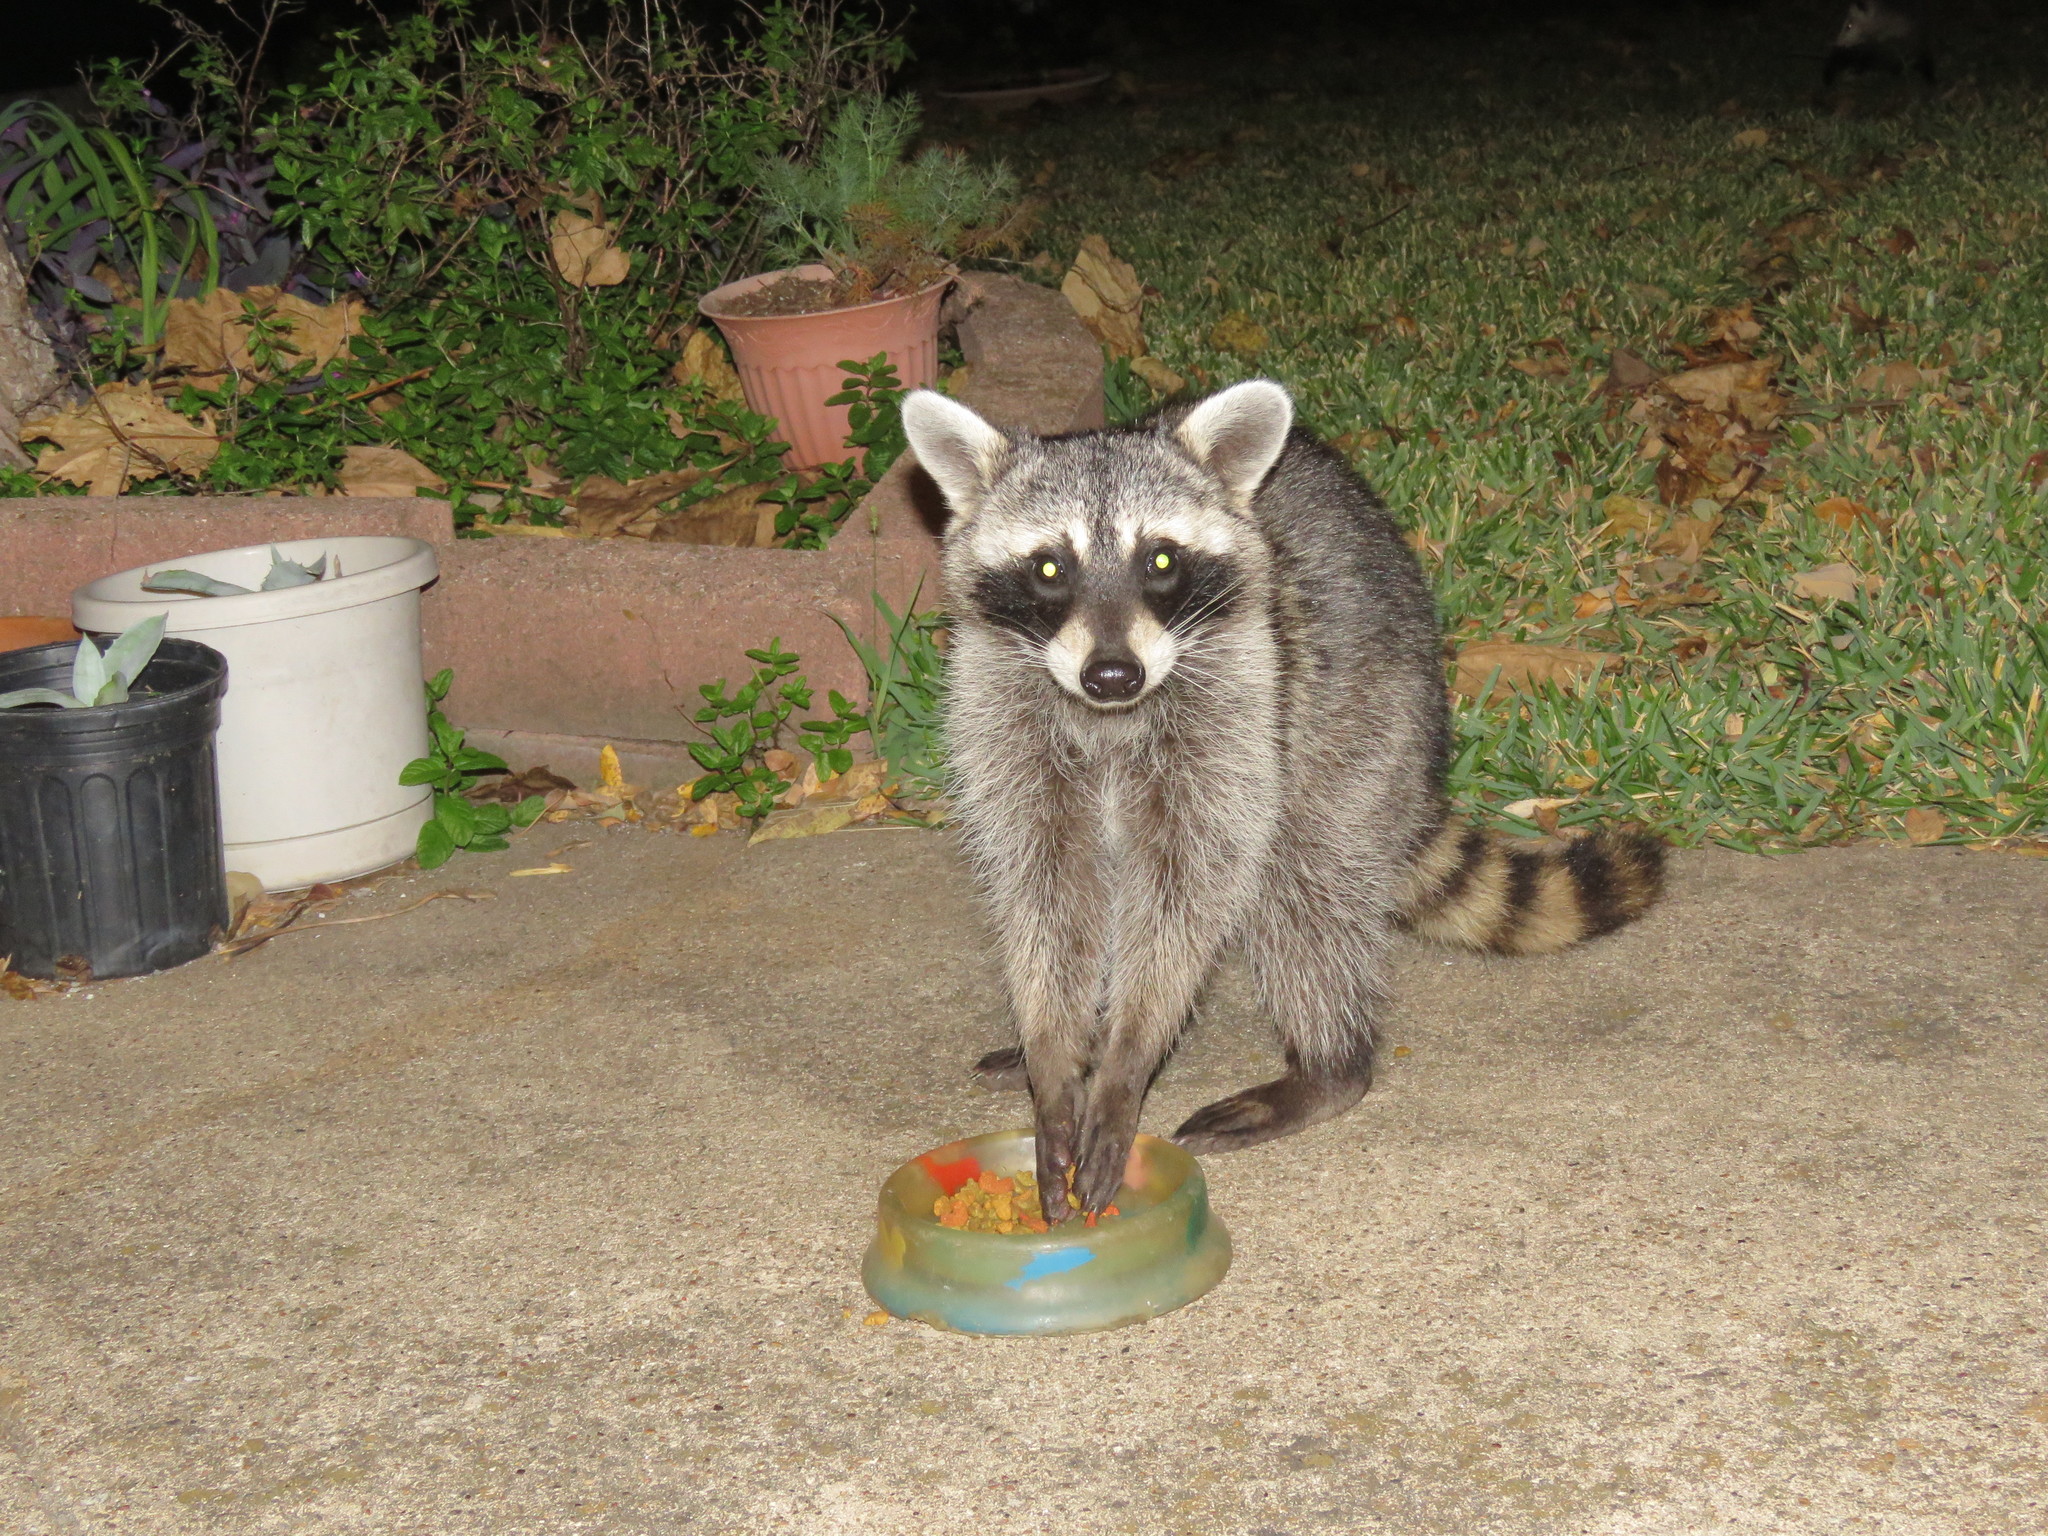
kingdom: Animalia
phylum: Chordata
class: Mammalia
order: Carnivora
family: Procyonidae
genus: Procyon
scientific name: Procyon lotor
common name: Raccoon
